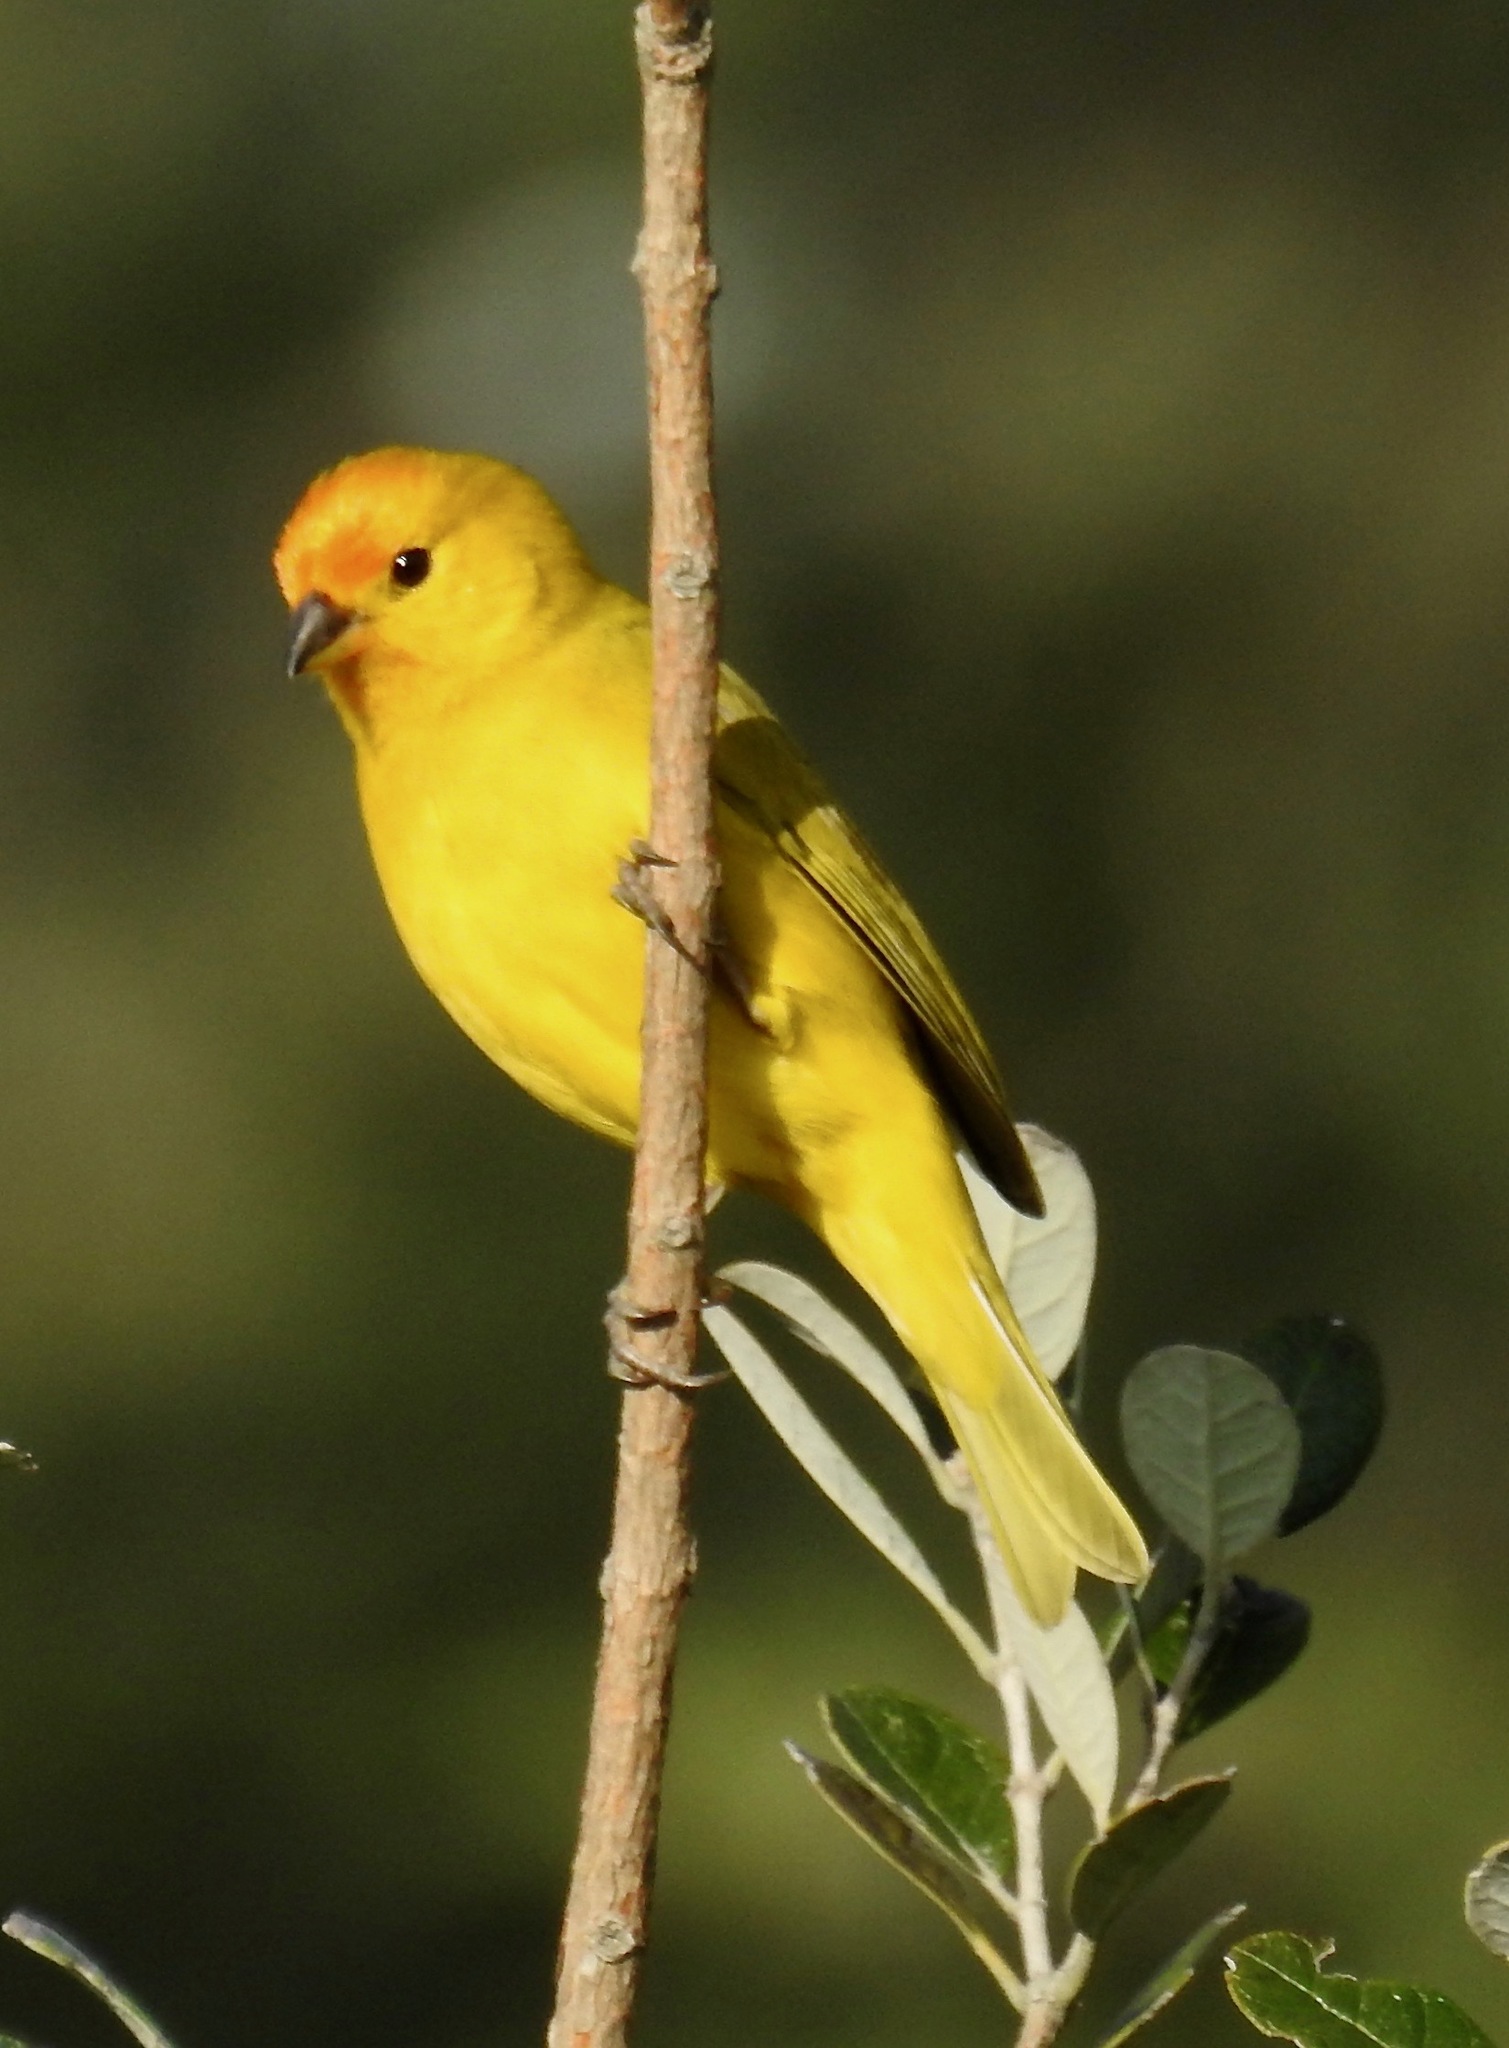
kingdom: Animalia
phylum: Chordata
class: Aves
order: Passeriformes
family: Thraupidae
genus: Sicalis
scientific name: Sicalis flaveola
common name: Saffron finch
